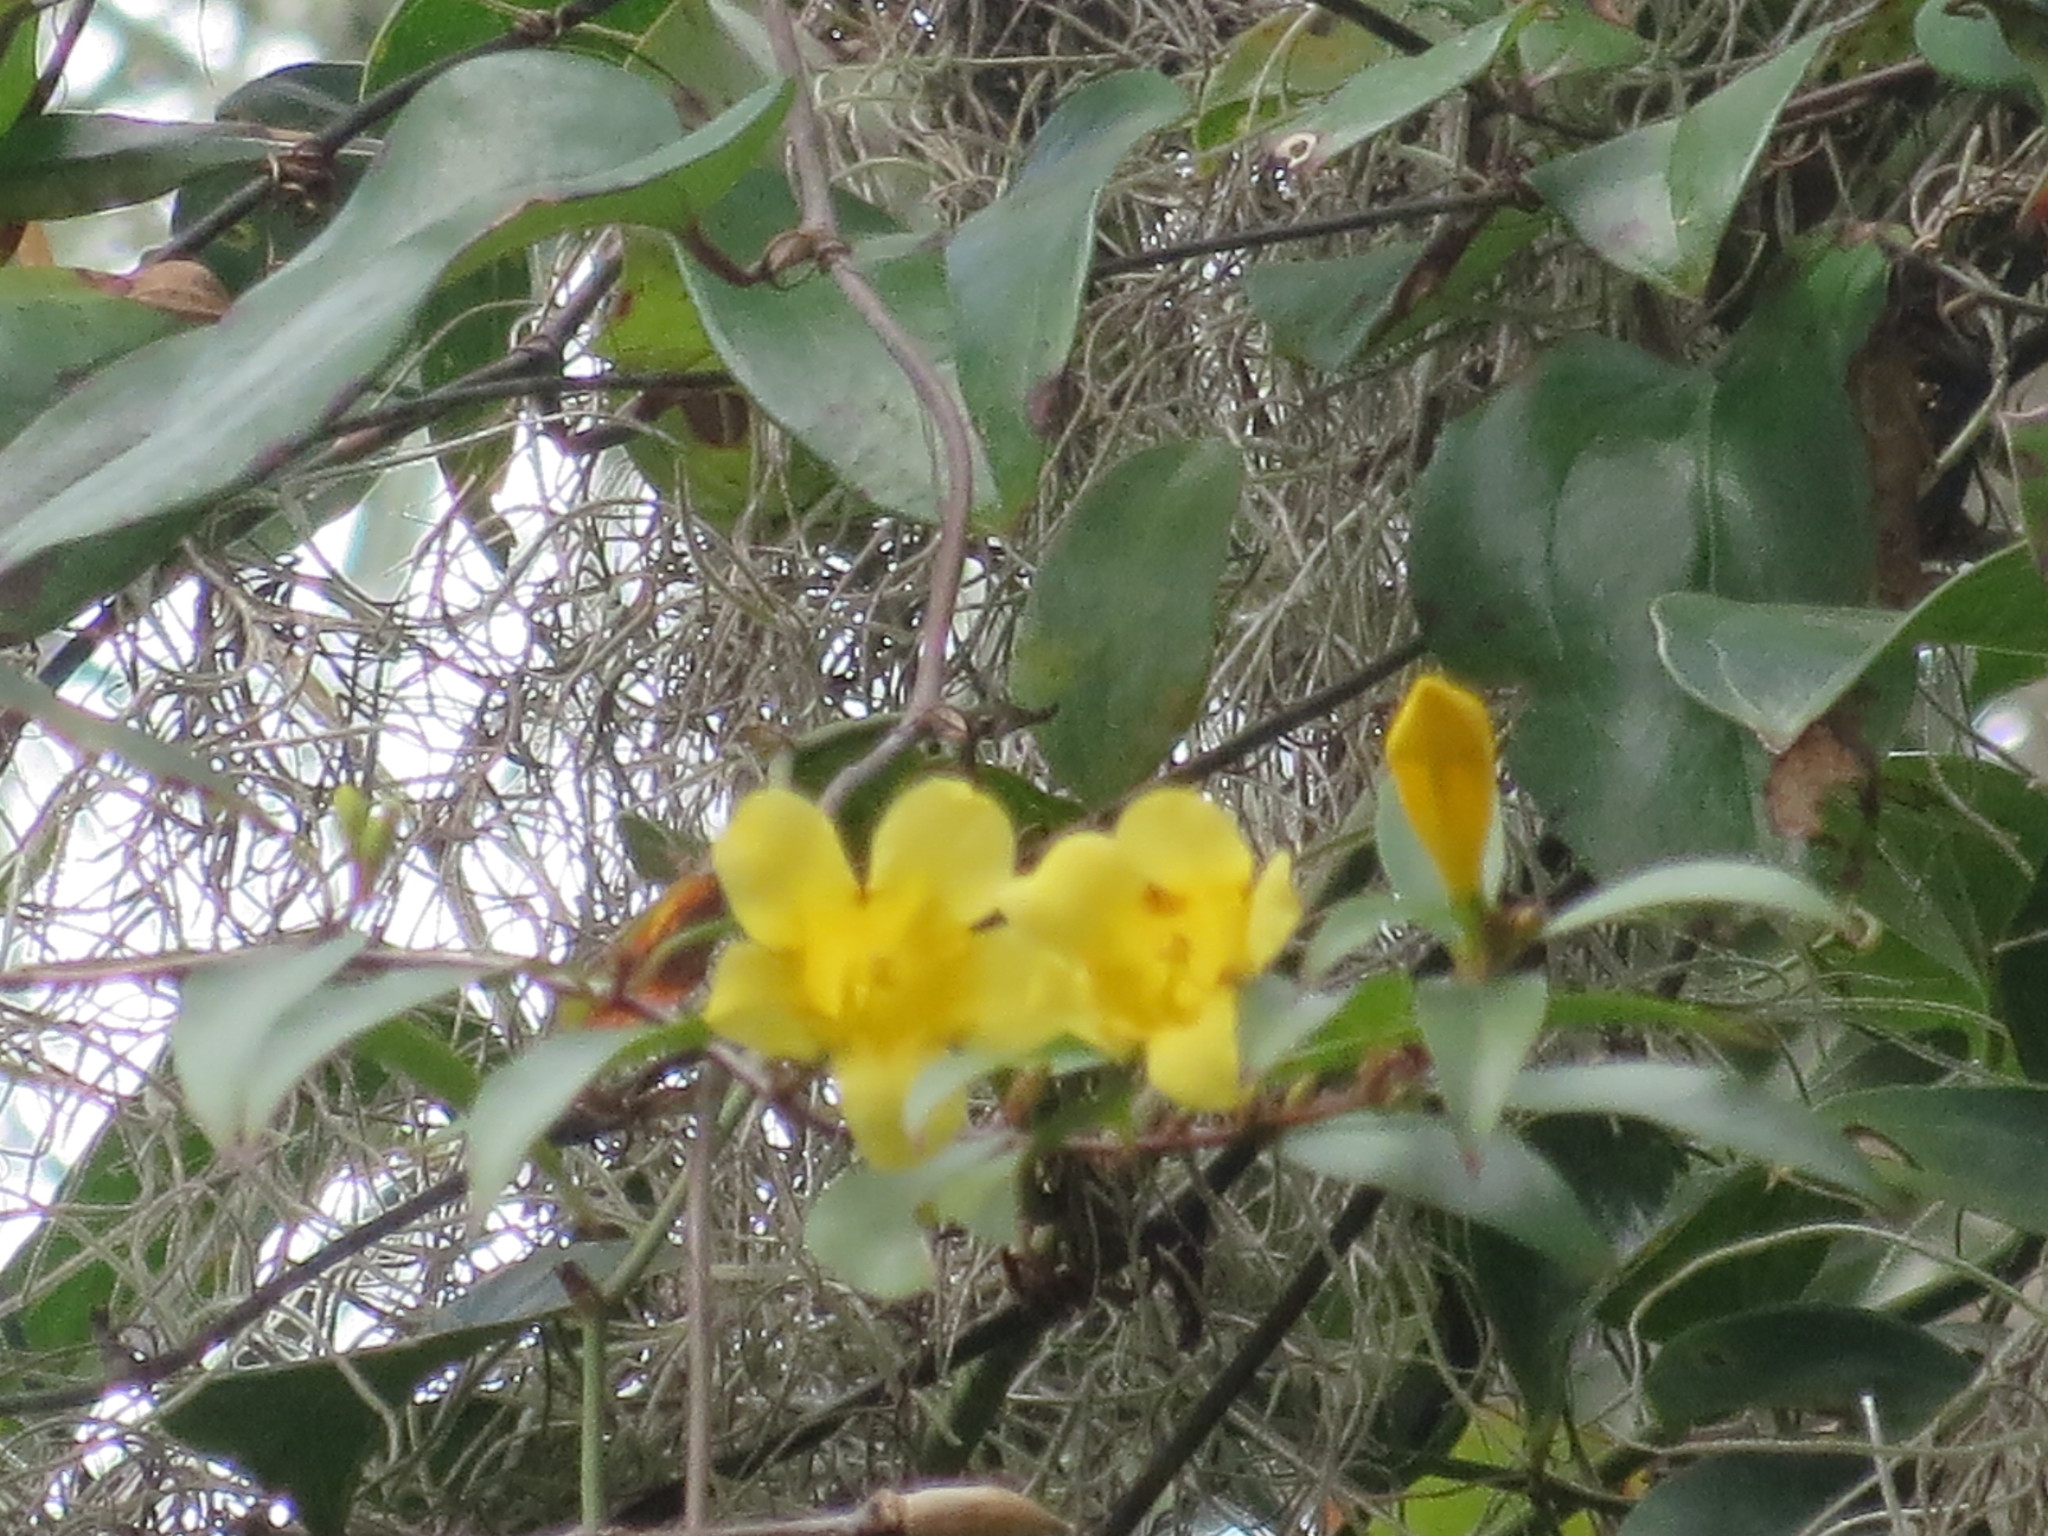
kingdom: Plantae
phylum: Tracheophyta
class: Magnoliopsida
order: Gentianales
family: Gelsemiaceae
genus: Gelsemium
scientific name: Gelsemium sempervirens
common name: Carolina-jasmine
